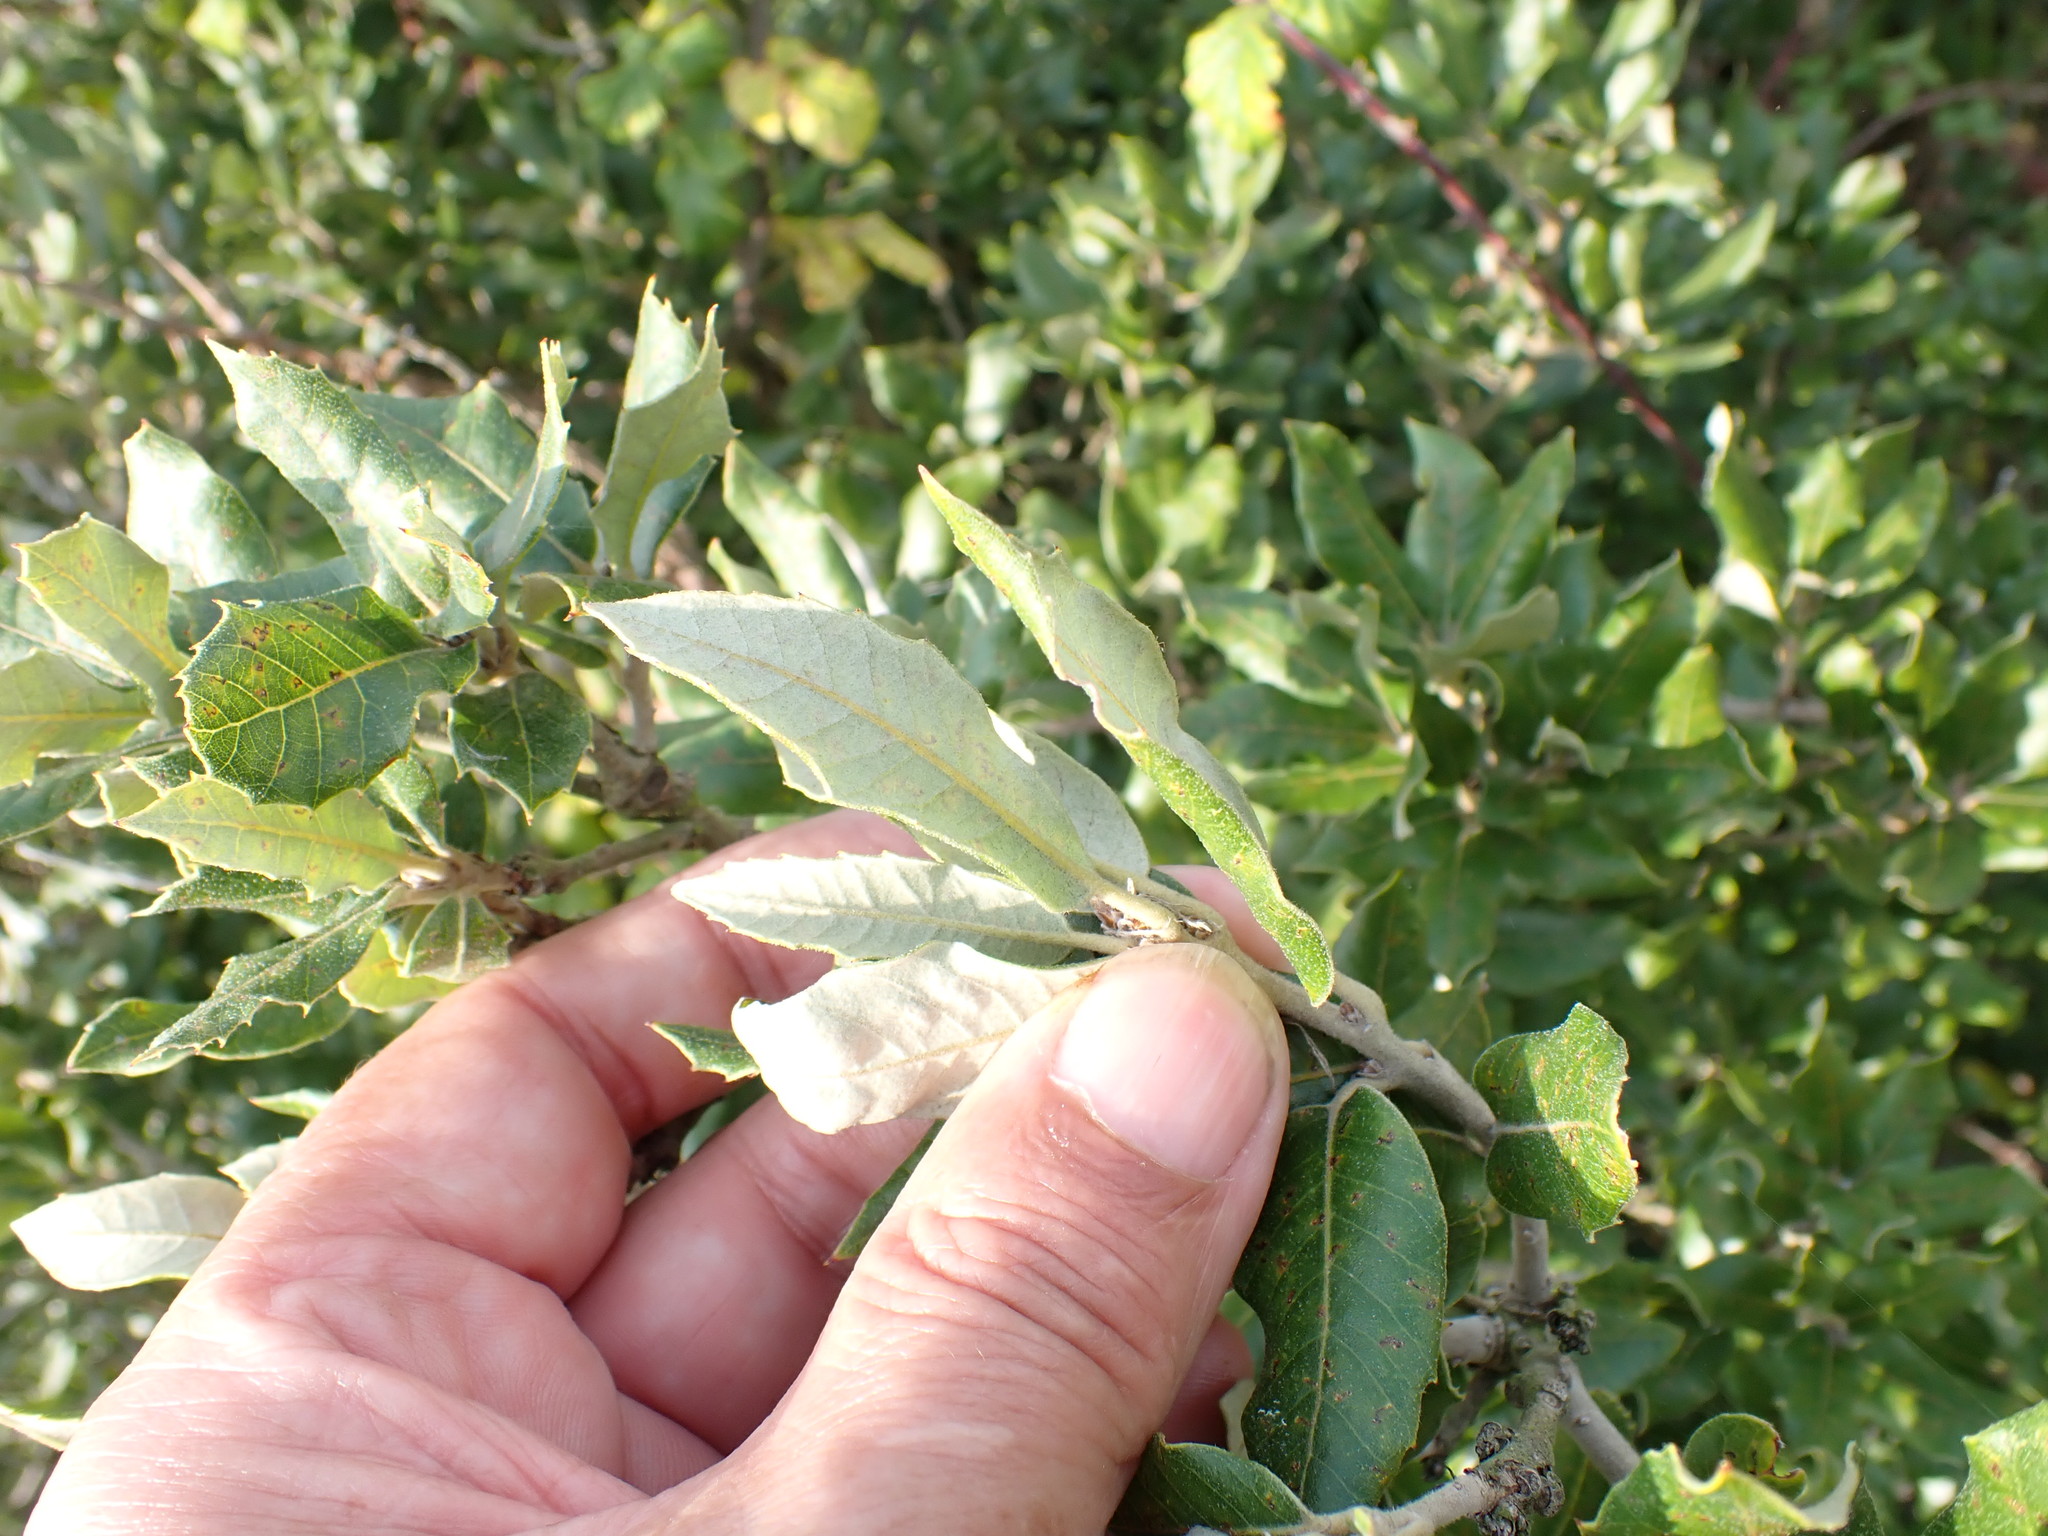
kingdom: Plantae
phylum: Tracheophyta
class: Magnoliopsida
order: Fagales
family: Fagaceae
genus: Quercus
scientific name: Quercus ilex
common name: Evergreen oak
